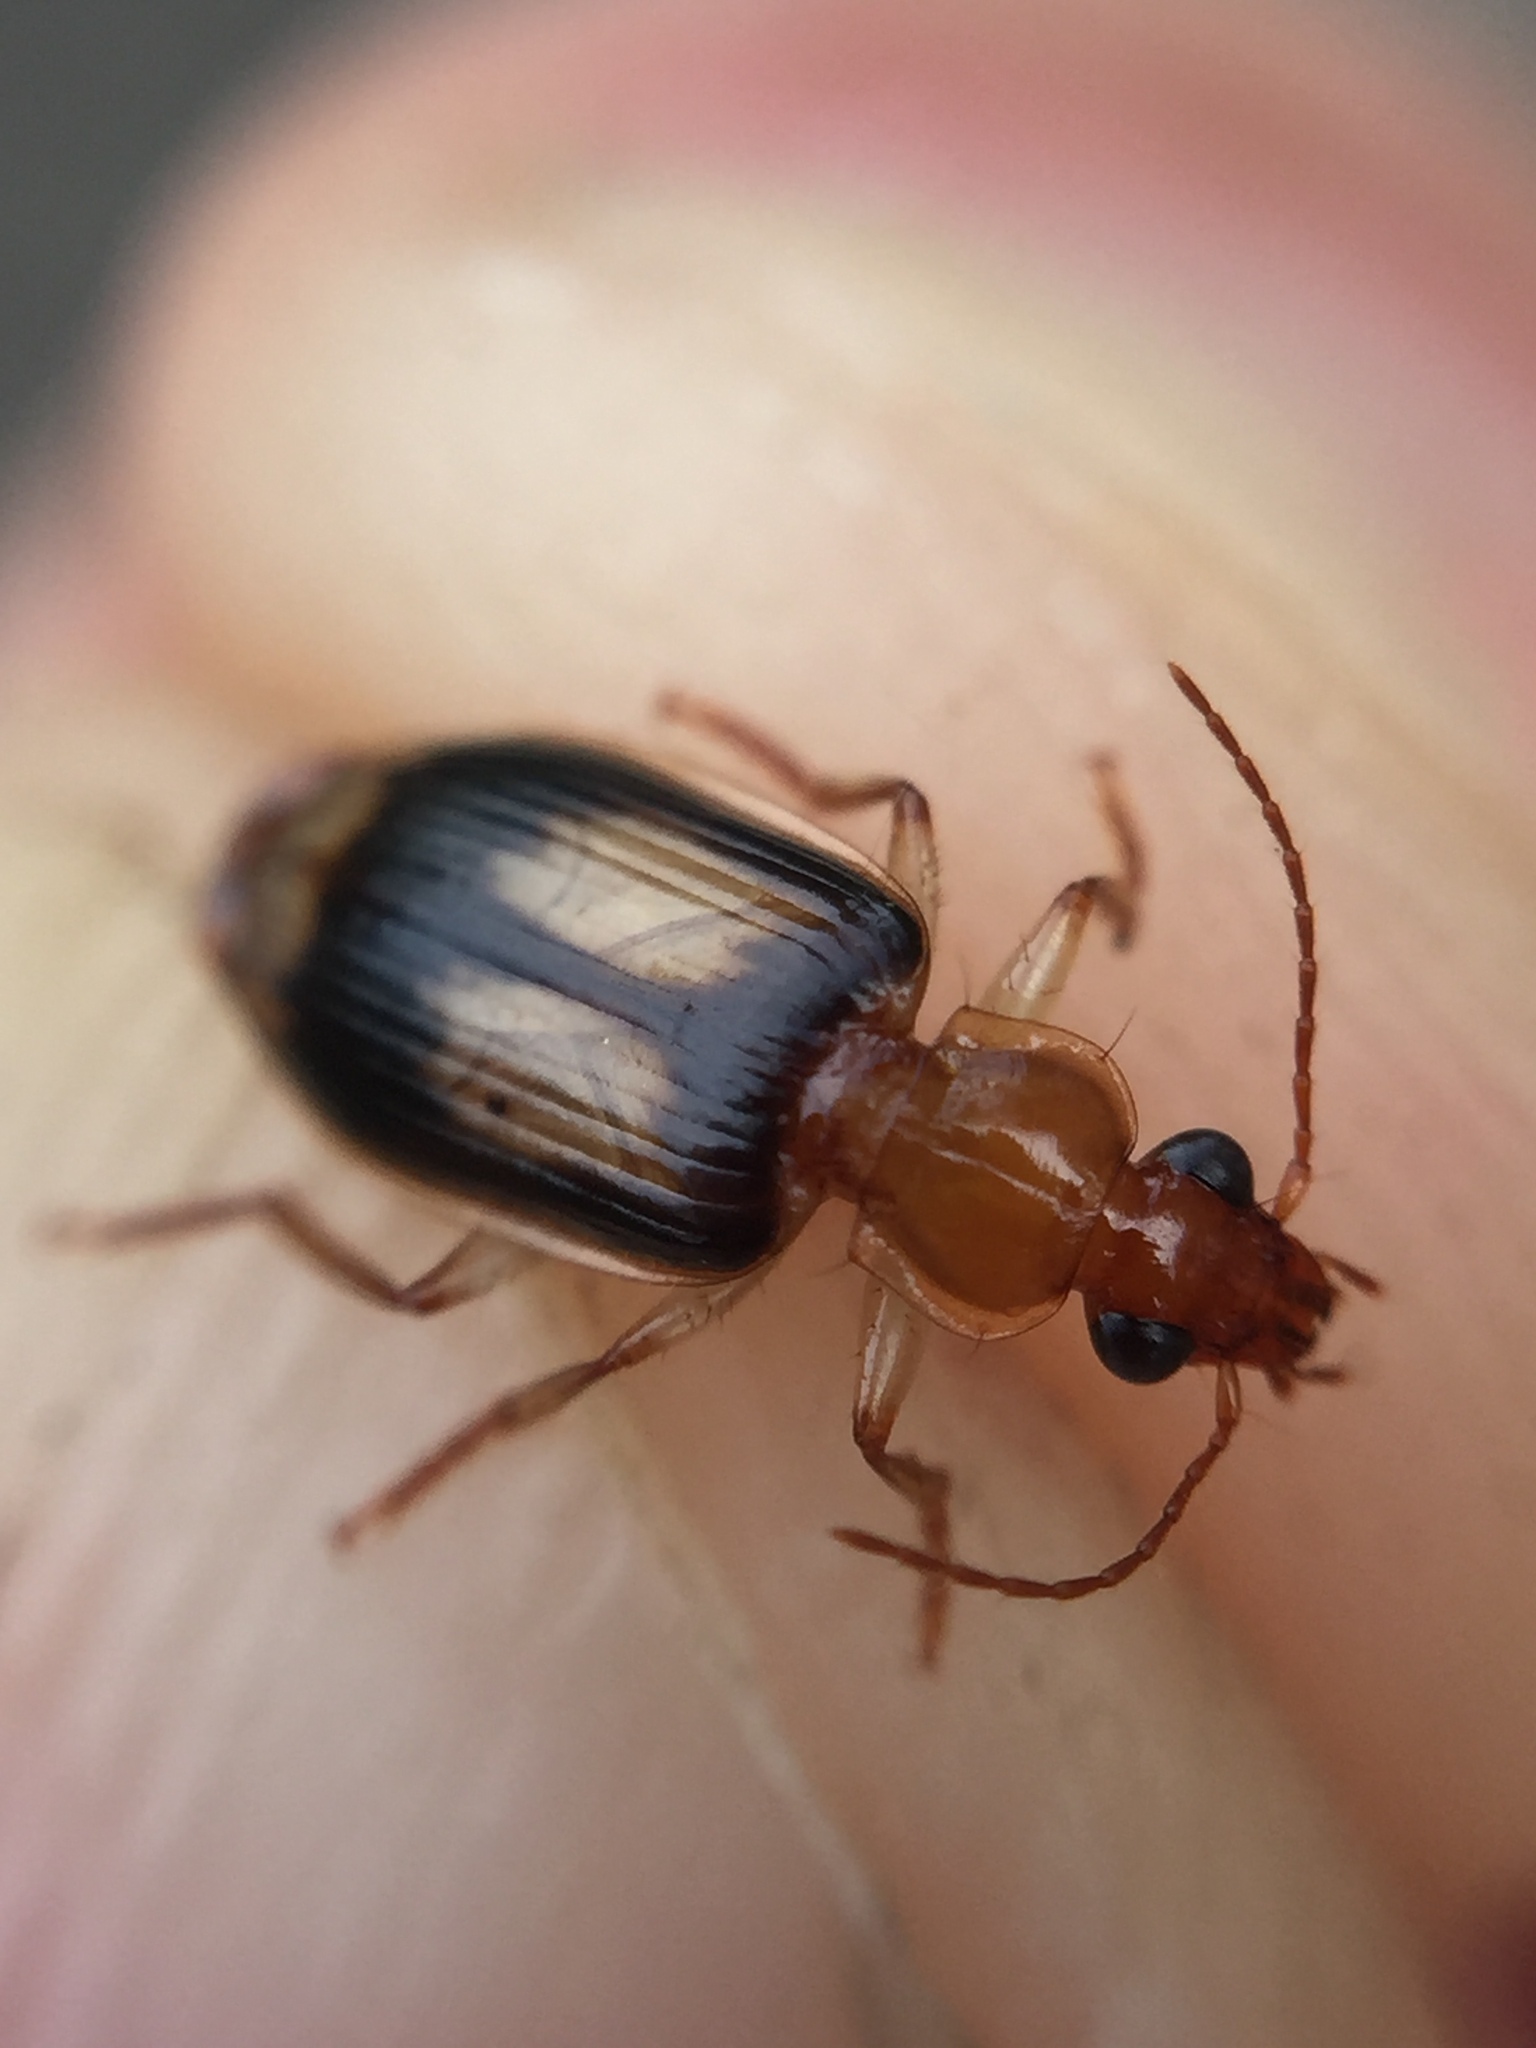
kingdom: Animalia
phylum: Arthropoda
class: Insecta
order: Coleoptera
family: Carabidae
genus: Trigonothops
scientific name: Trigonothops pacificus
